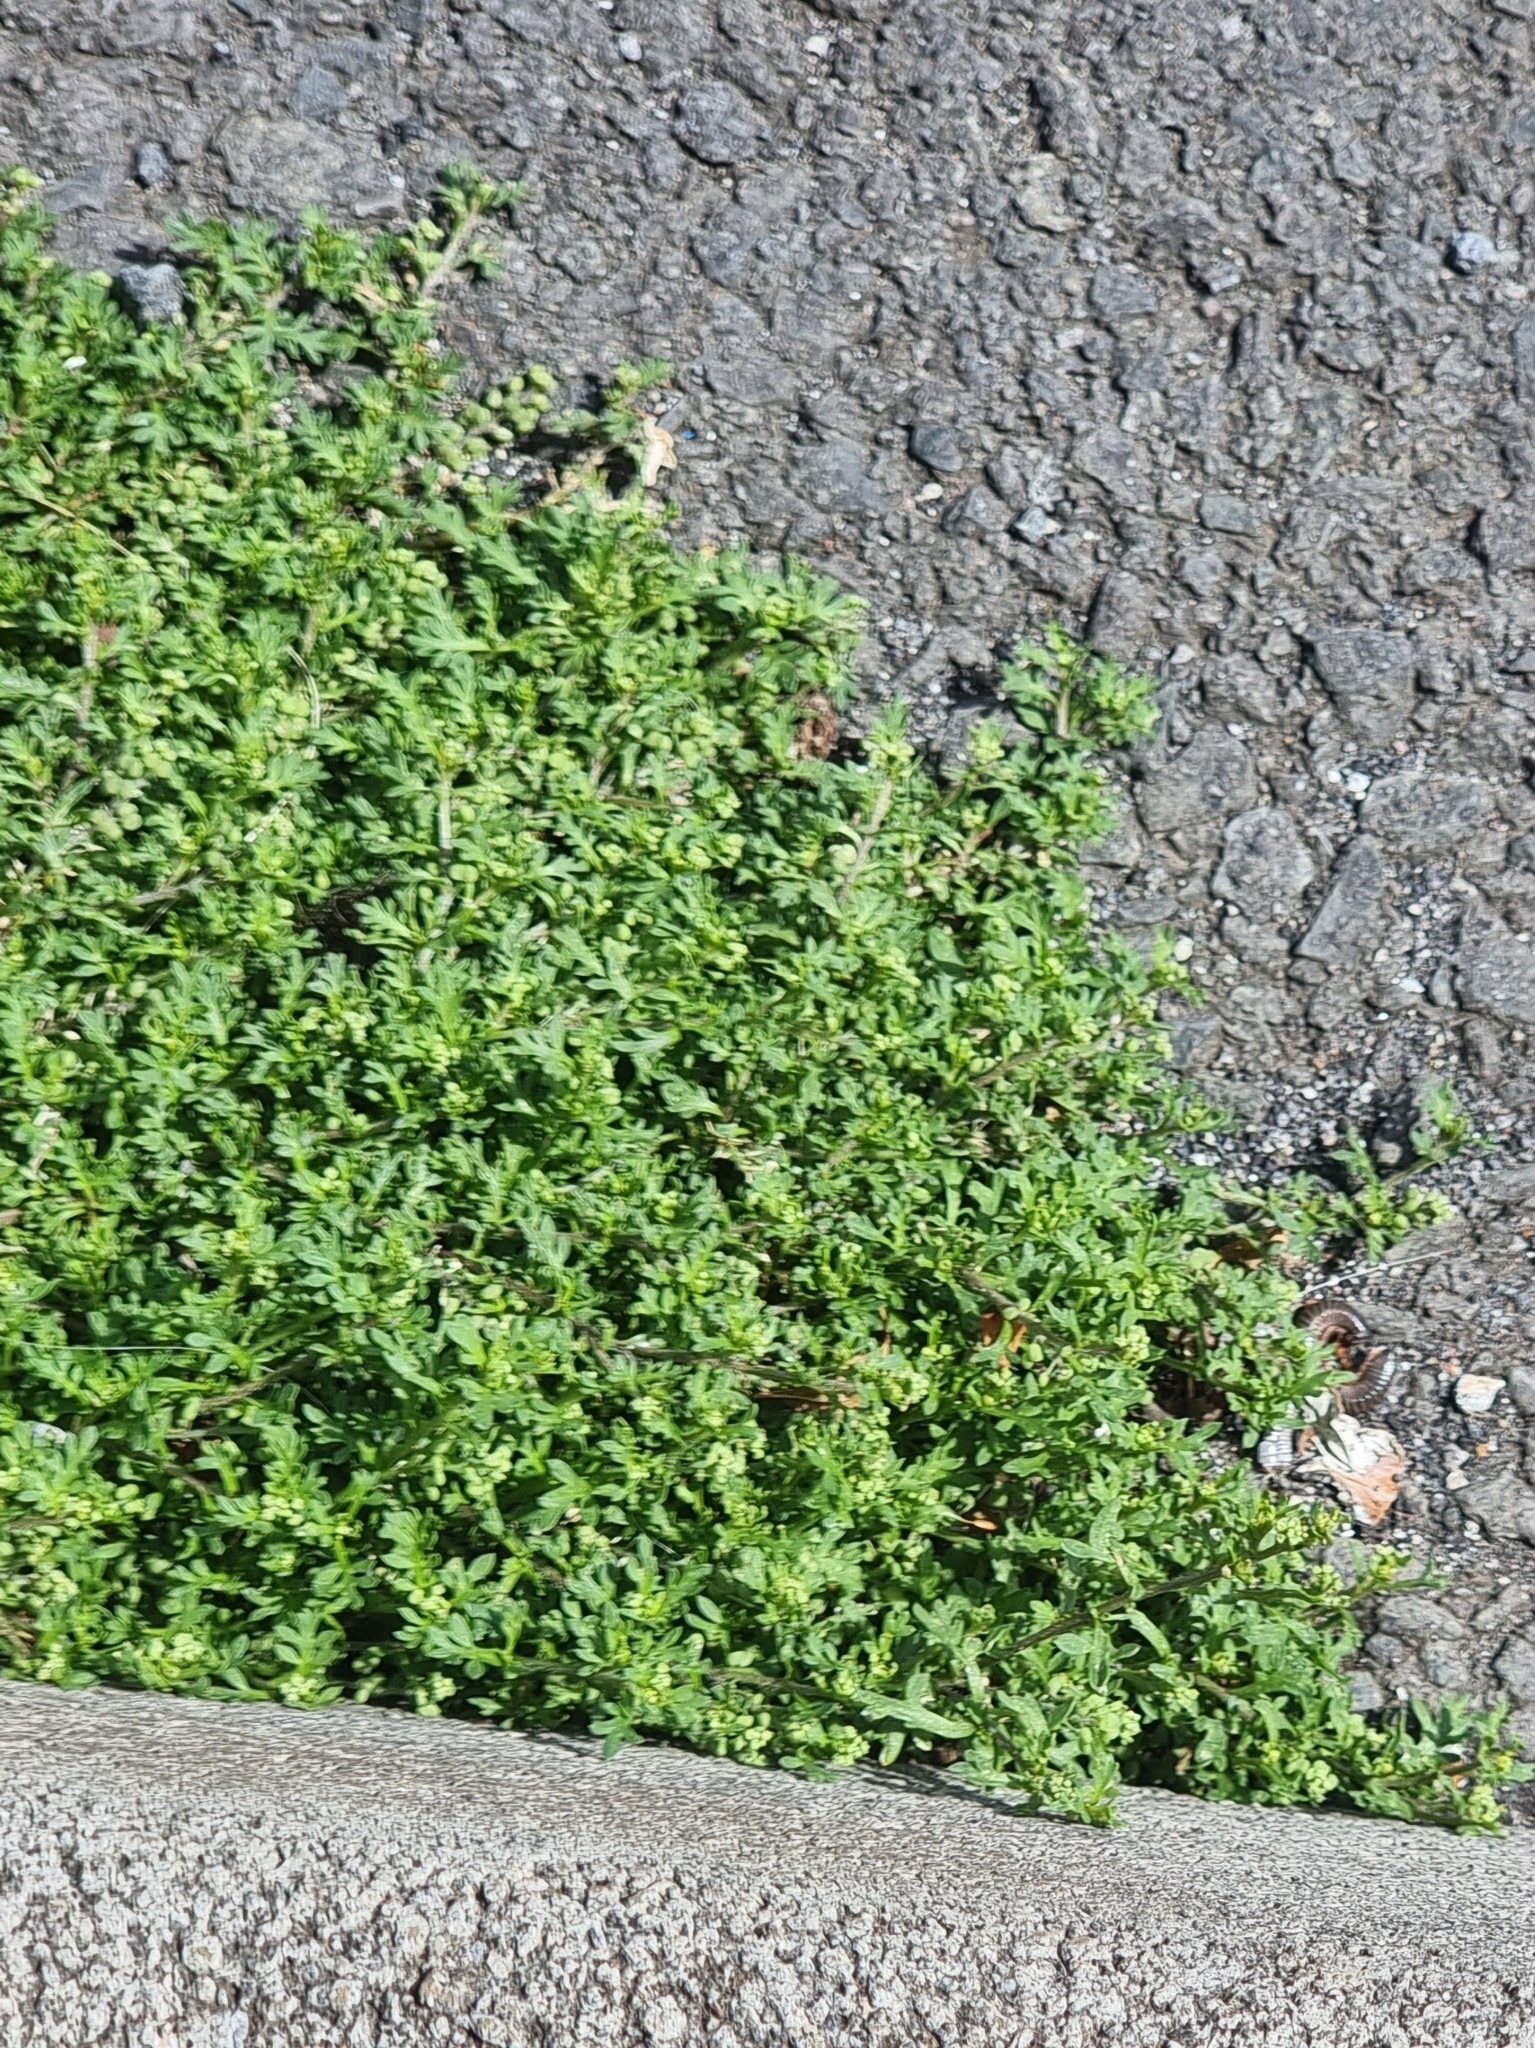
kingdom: Plantae
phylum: Tracheophyta
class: Magnoliopsida
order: Brassicales
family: Brassicaceae
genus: Lepidium
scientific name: Lepidium didymum
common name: Lesser swinecress
